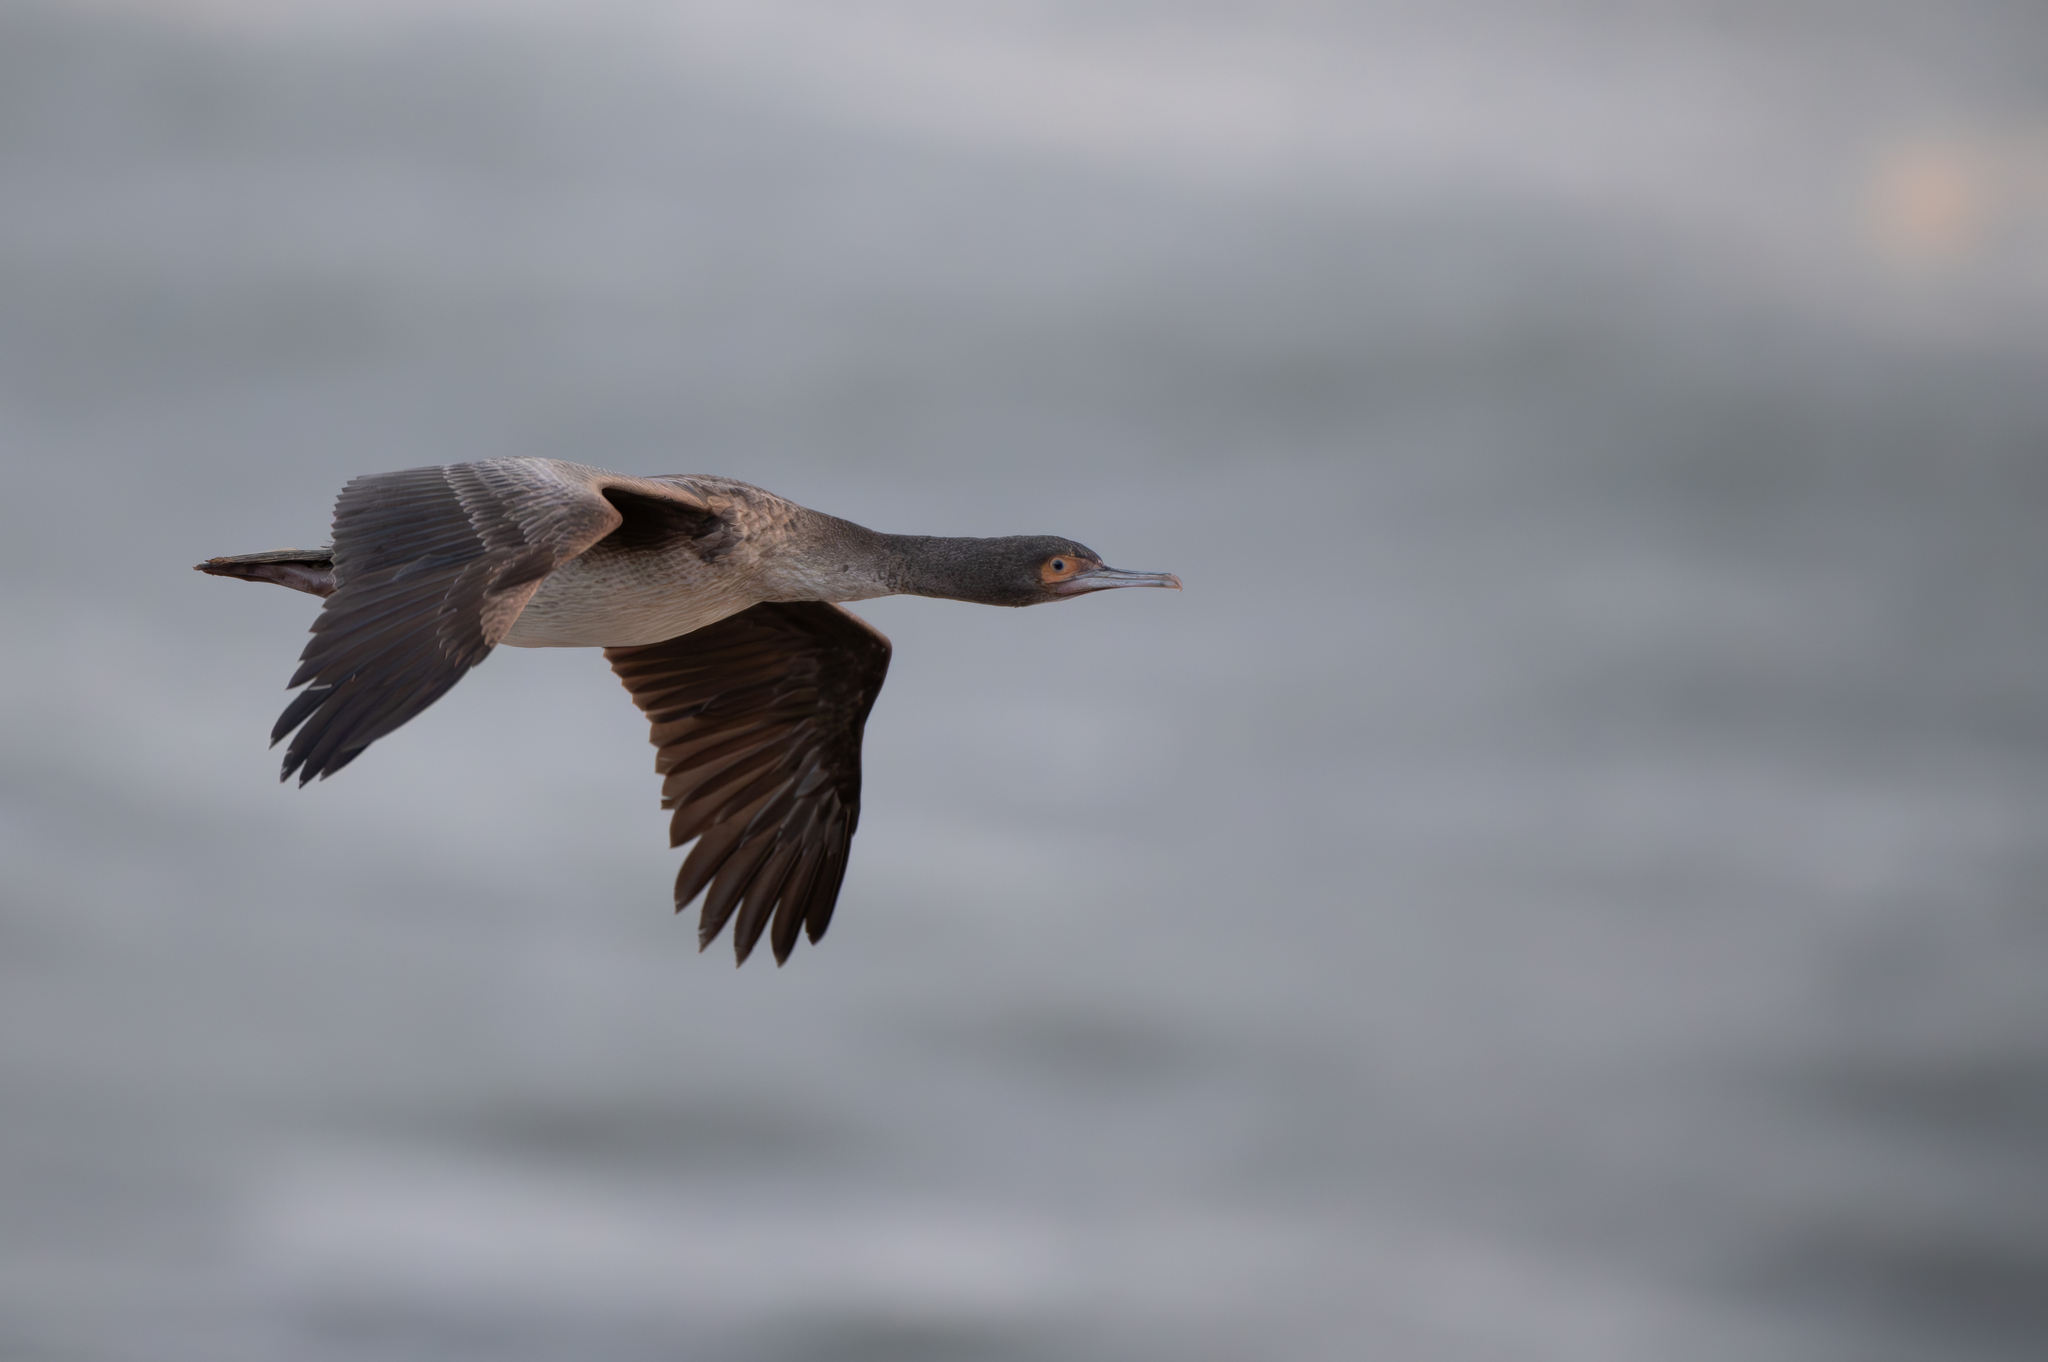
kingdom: Animalia
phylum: Chordata
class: Aves
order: Suliformes
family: Phalacrocoracidae
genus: Leucocarbo
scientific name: Leucocarbo bougainvillii
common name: Guanay cormorant
